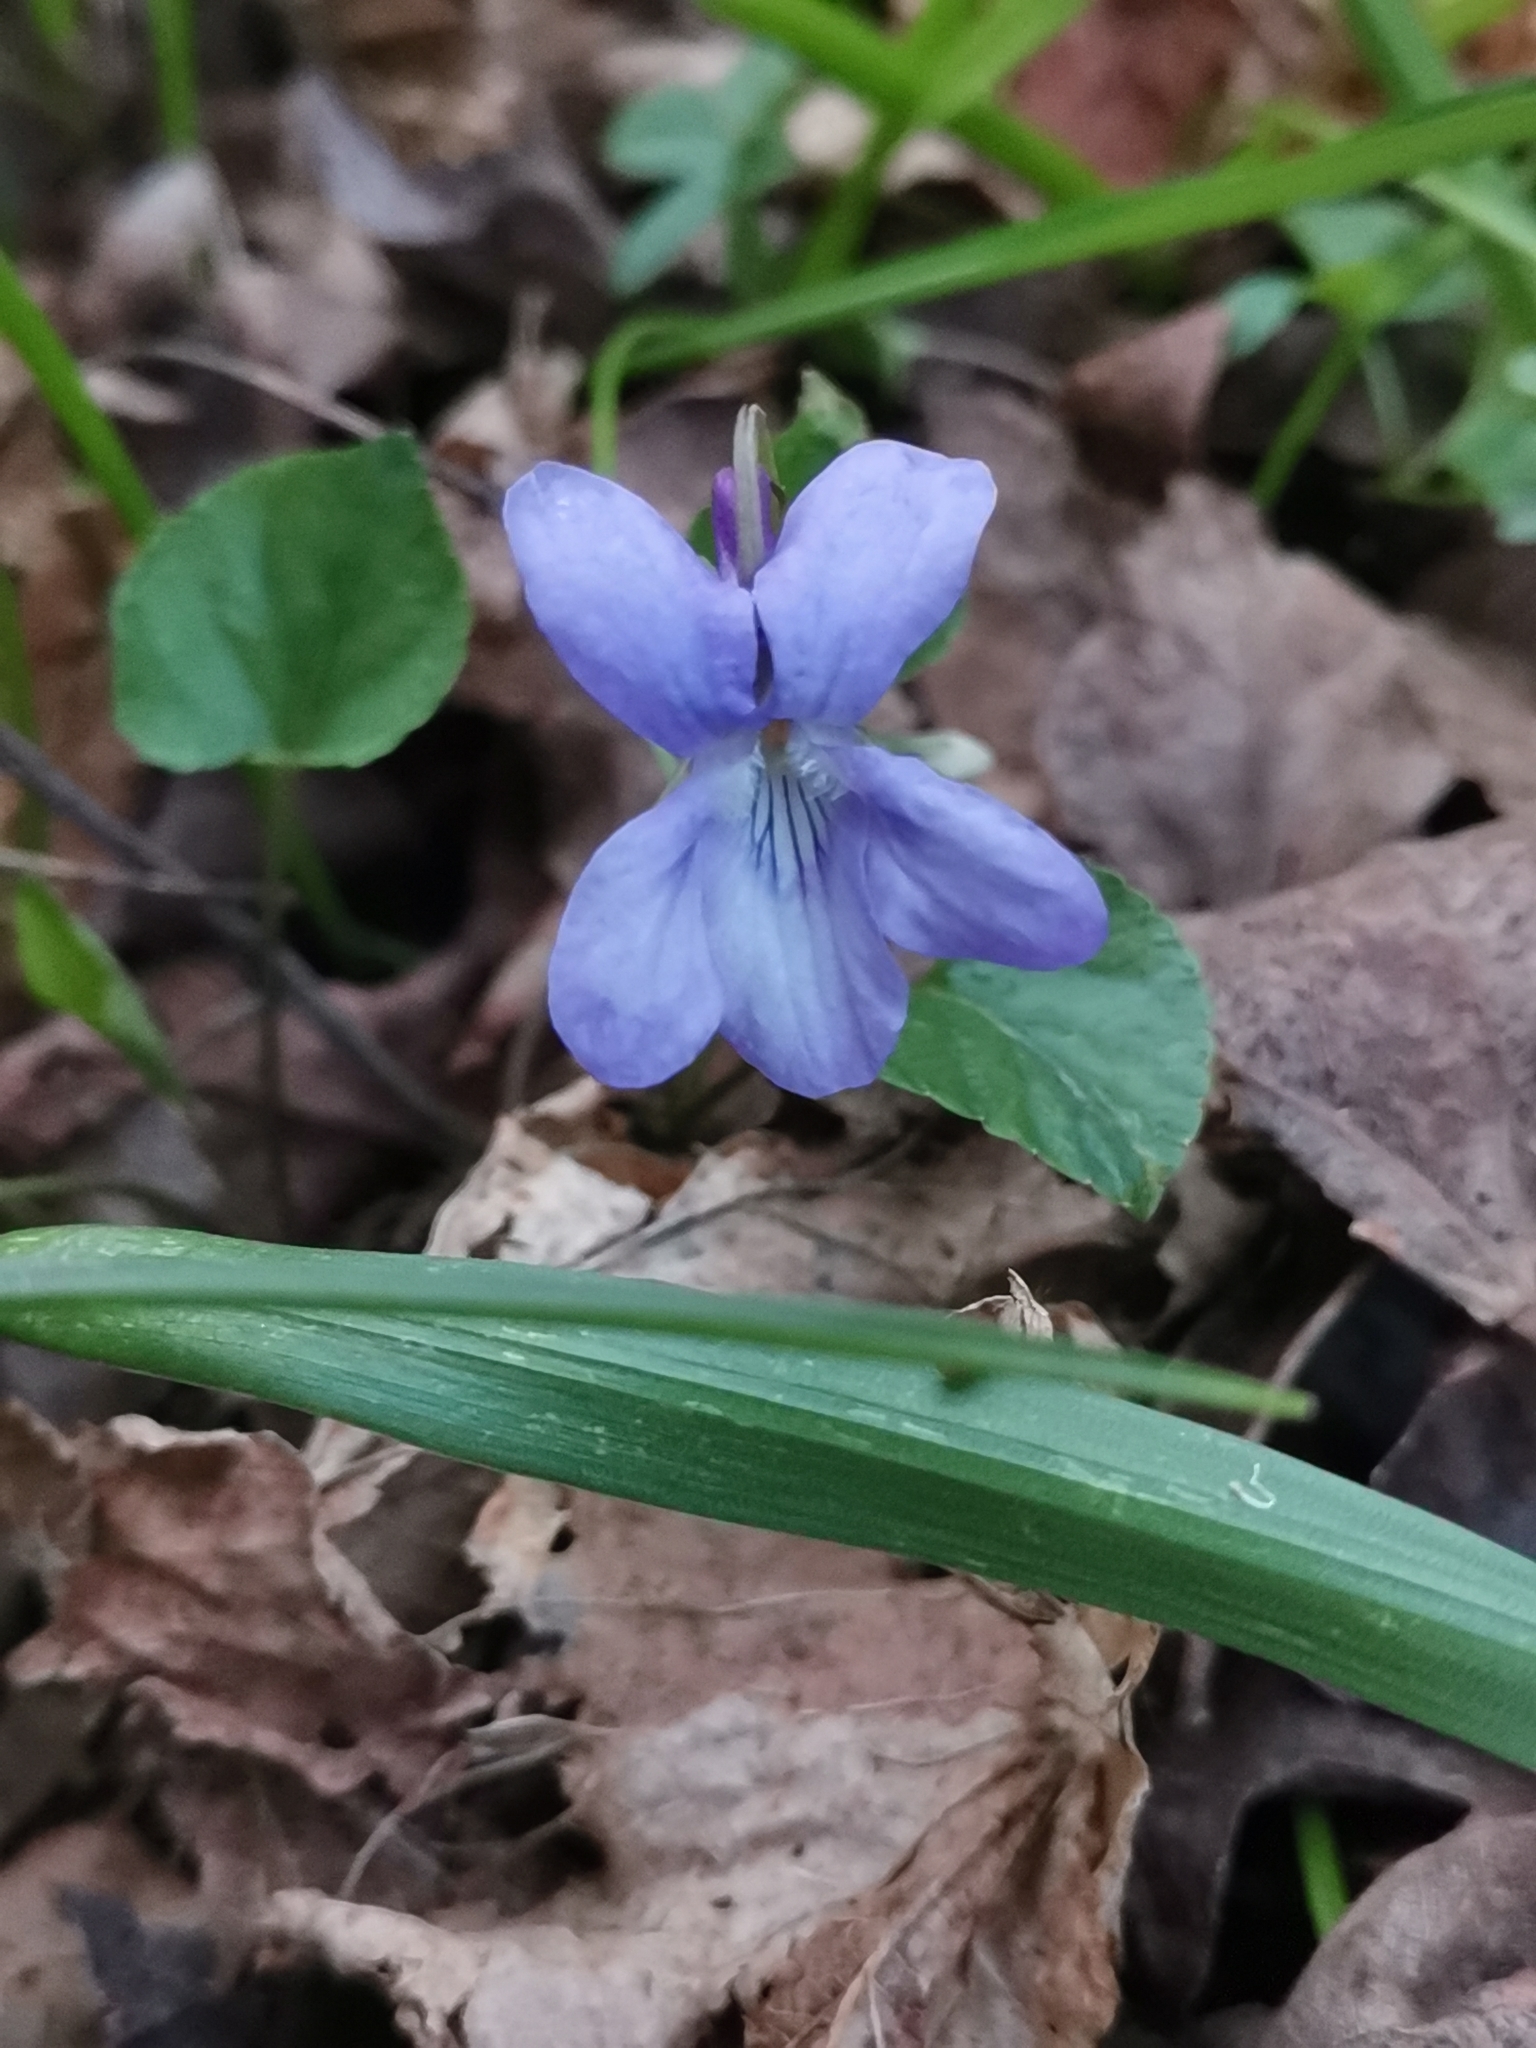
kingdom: Plantae
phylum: Tracheophyta
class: Magnoliopsida
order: Malpighiales
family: Violaceae
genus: Viola
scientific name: Viola reichenbachiana
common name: Early dog-violet
